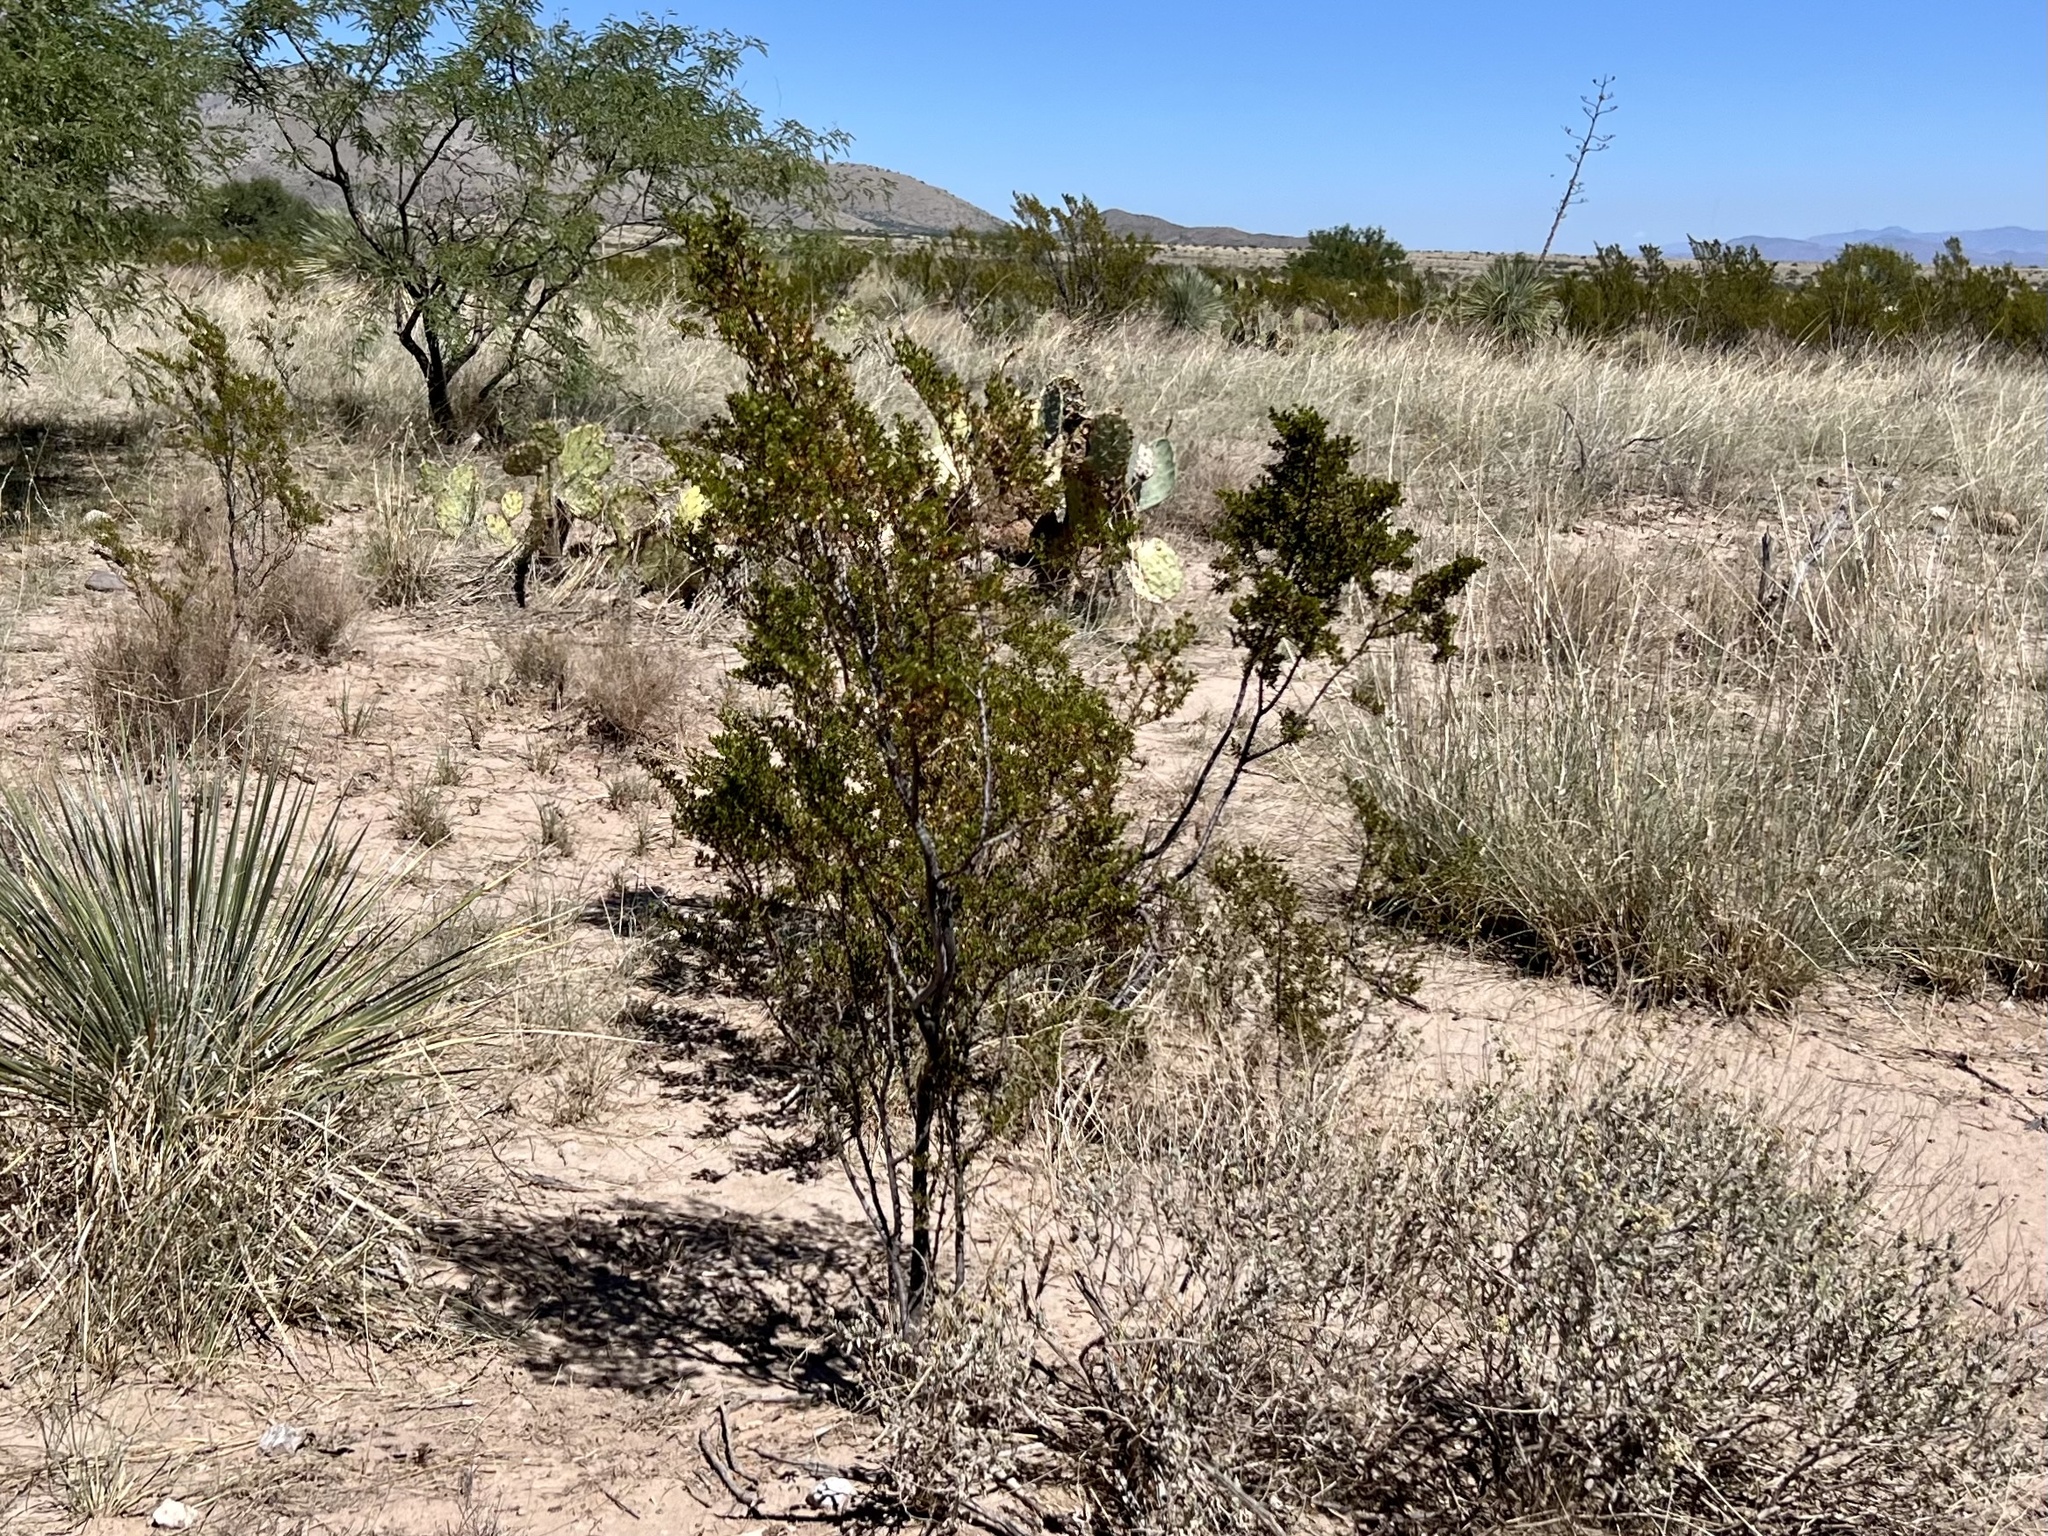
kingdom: Plantae
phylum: Tracheophyta
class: Magnoliopsida
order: Zygophyllales
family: Zygophyllaceae
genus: Larrea
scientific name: Larrea tridentata
